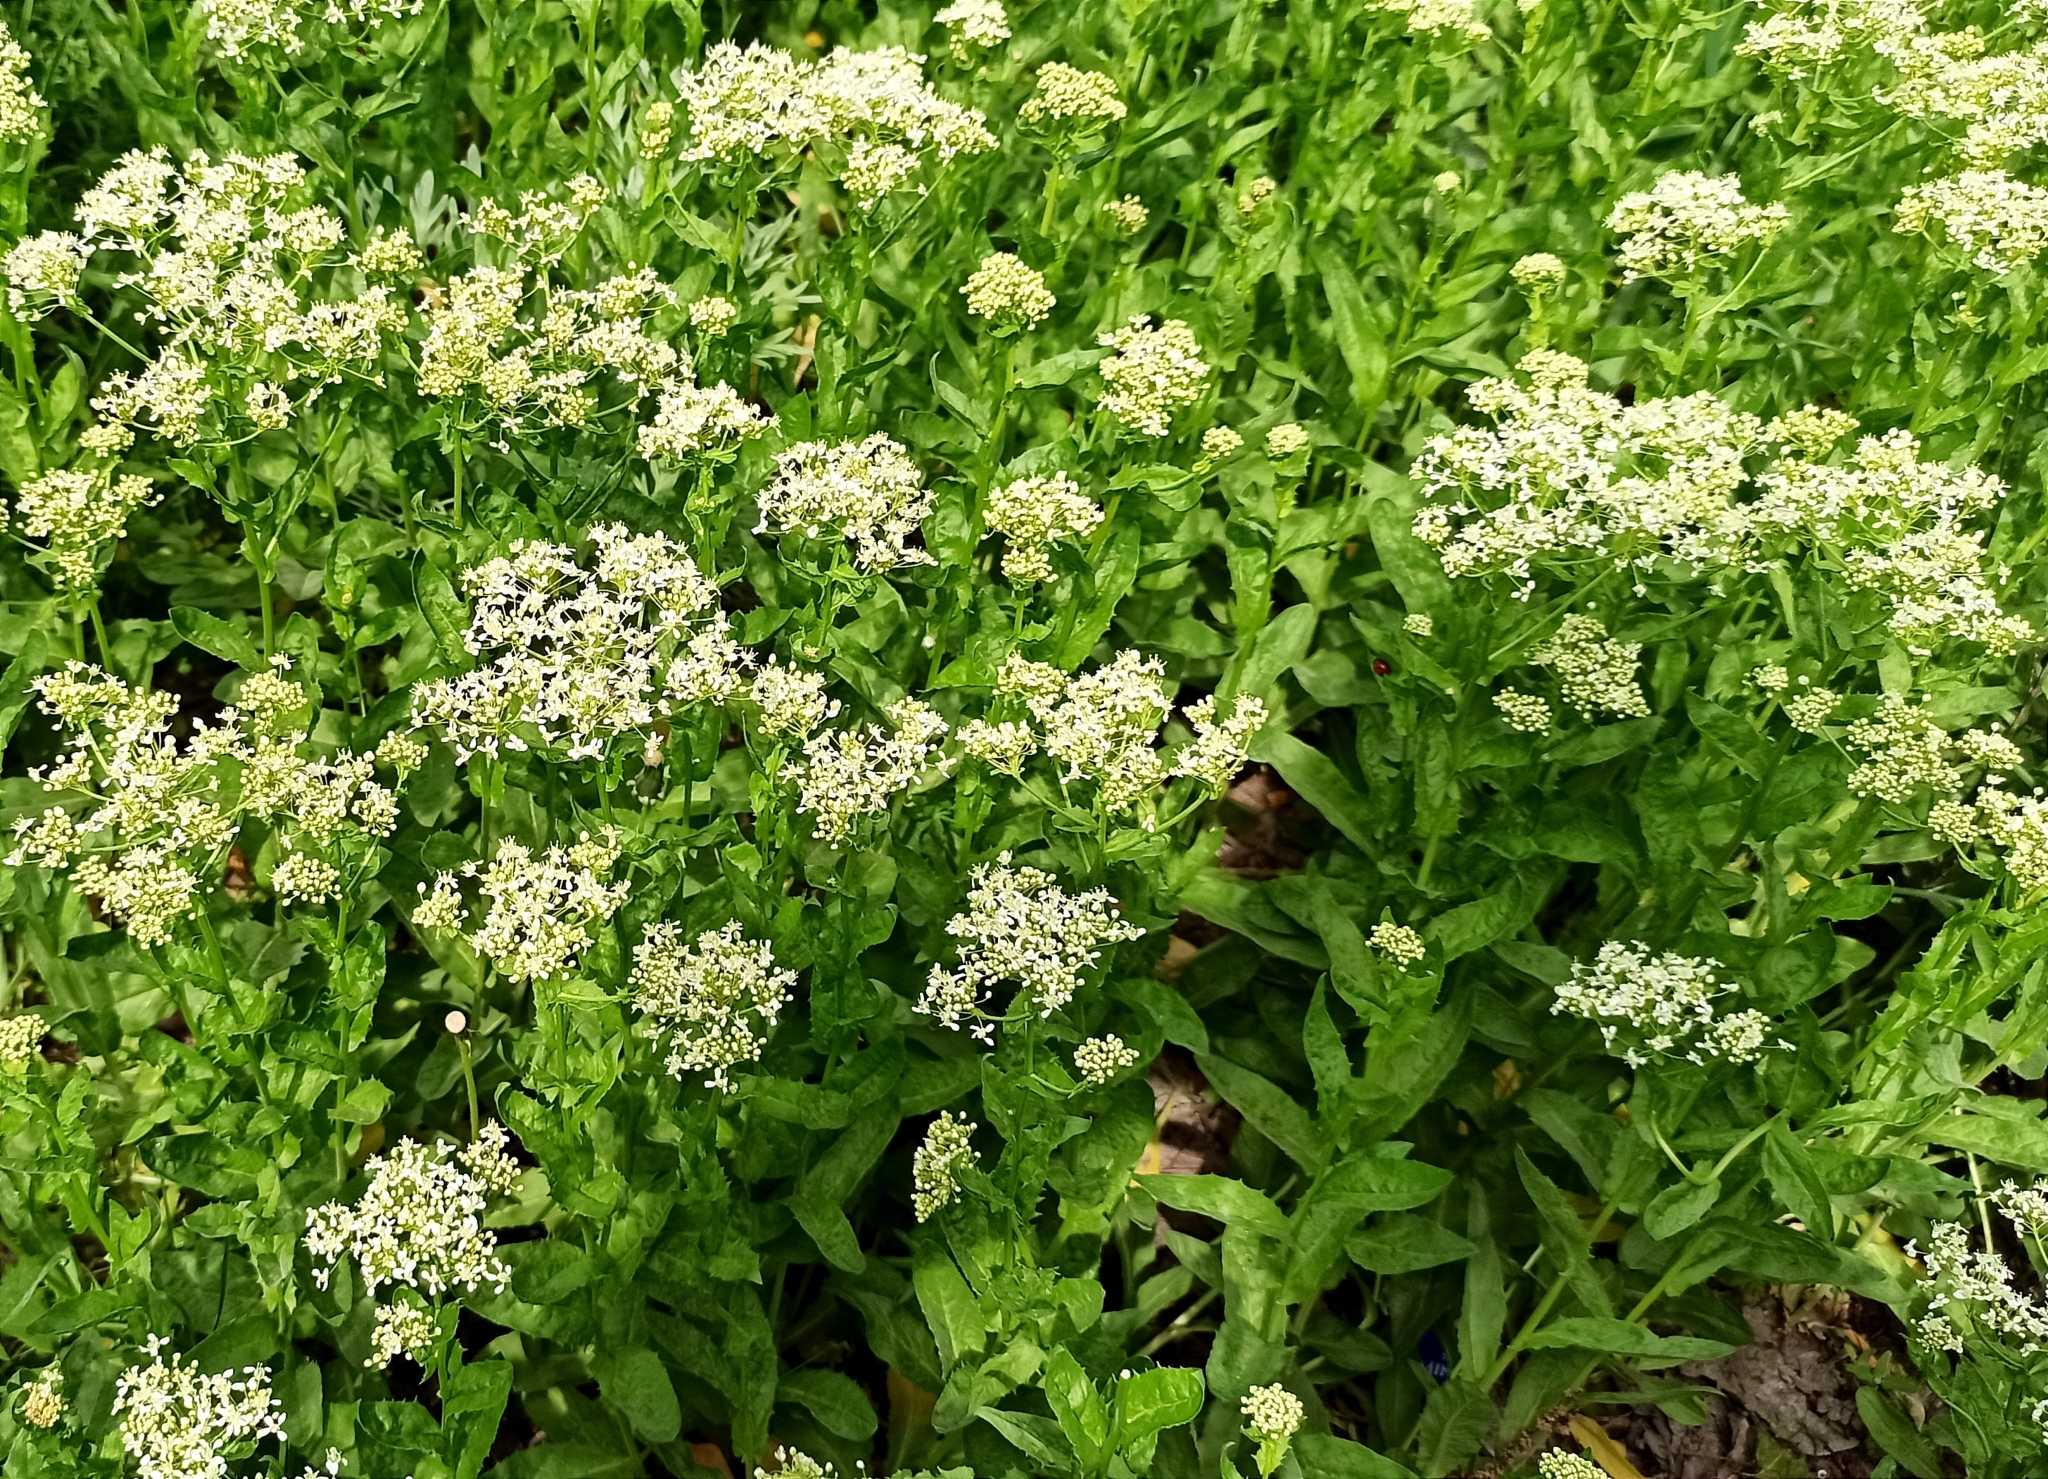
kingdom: Plantae
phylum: Tracheophyta
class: Magnoliopsida
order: Brassicales
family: Brassicaceae
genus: Lepidium
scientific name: Lepidium draba
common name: Hoary cress
